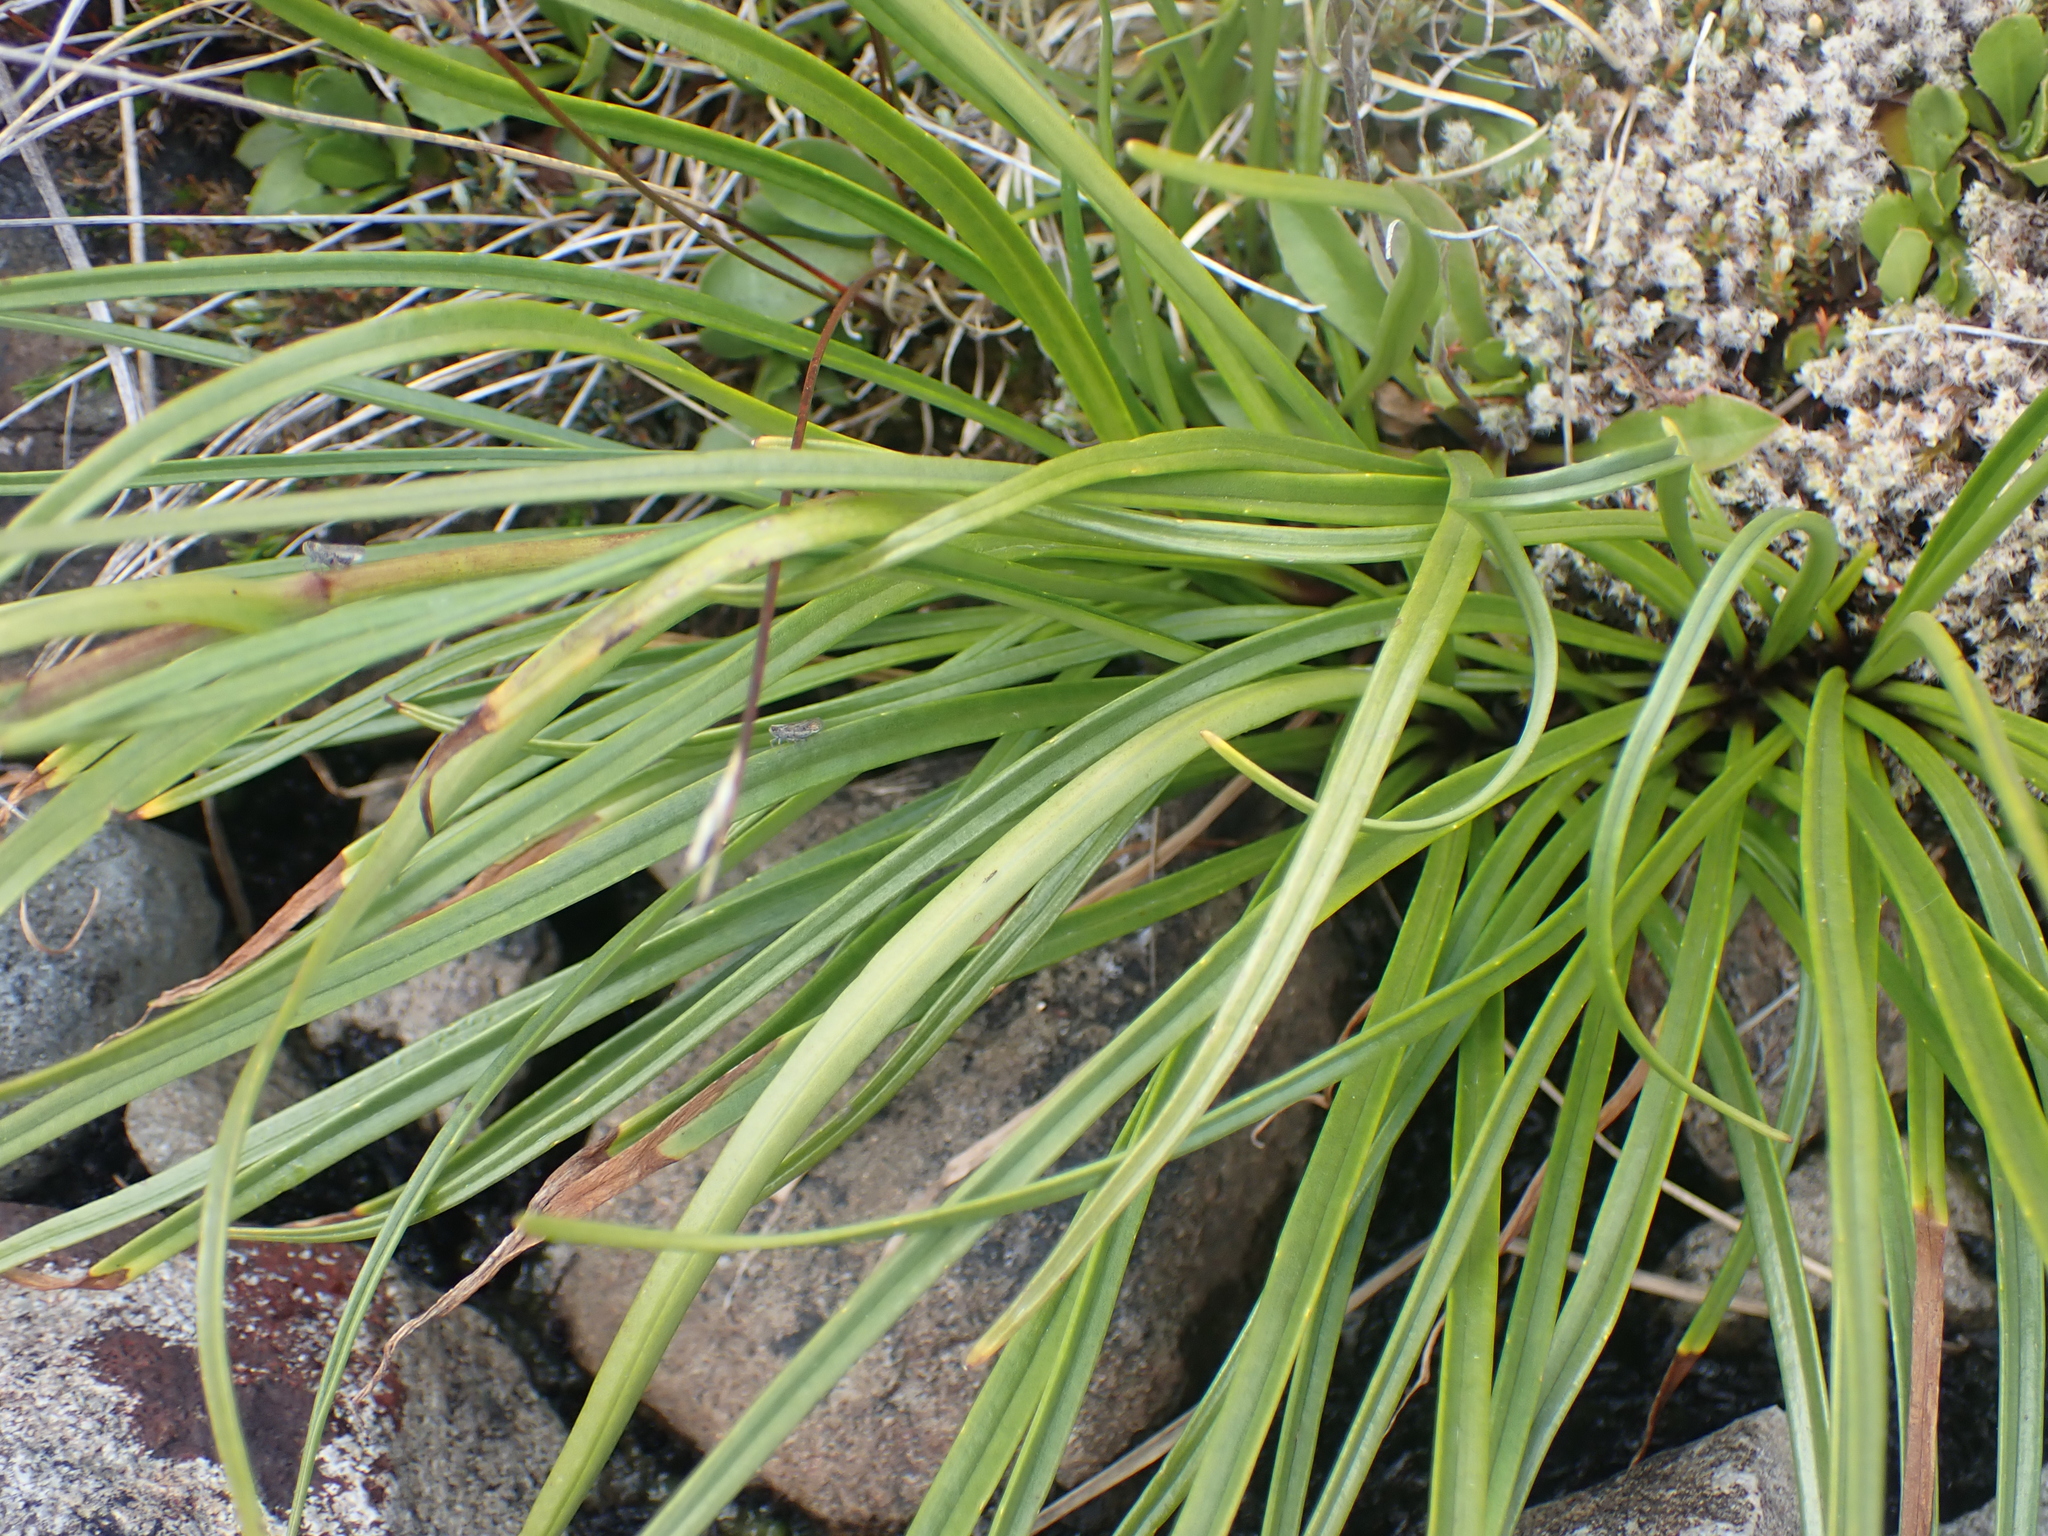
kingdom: Plantae
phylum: Tracheophyta
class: Magnoliopsida
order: Asterales
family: Asteraceae
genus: Dolichoglottis
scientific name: Dolichoglottis lyallii
